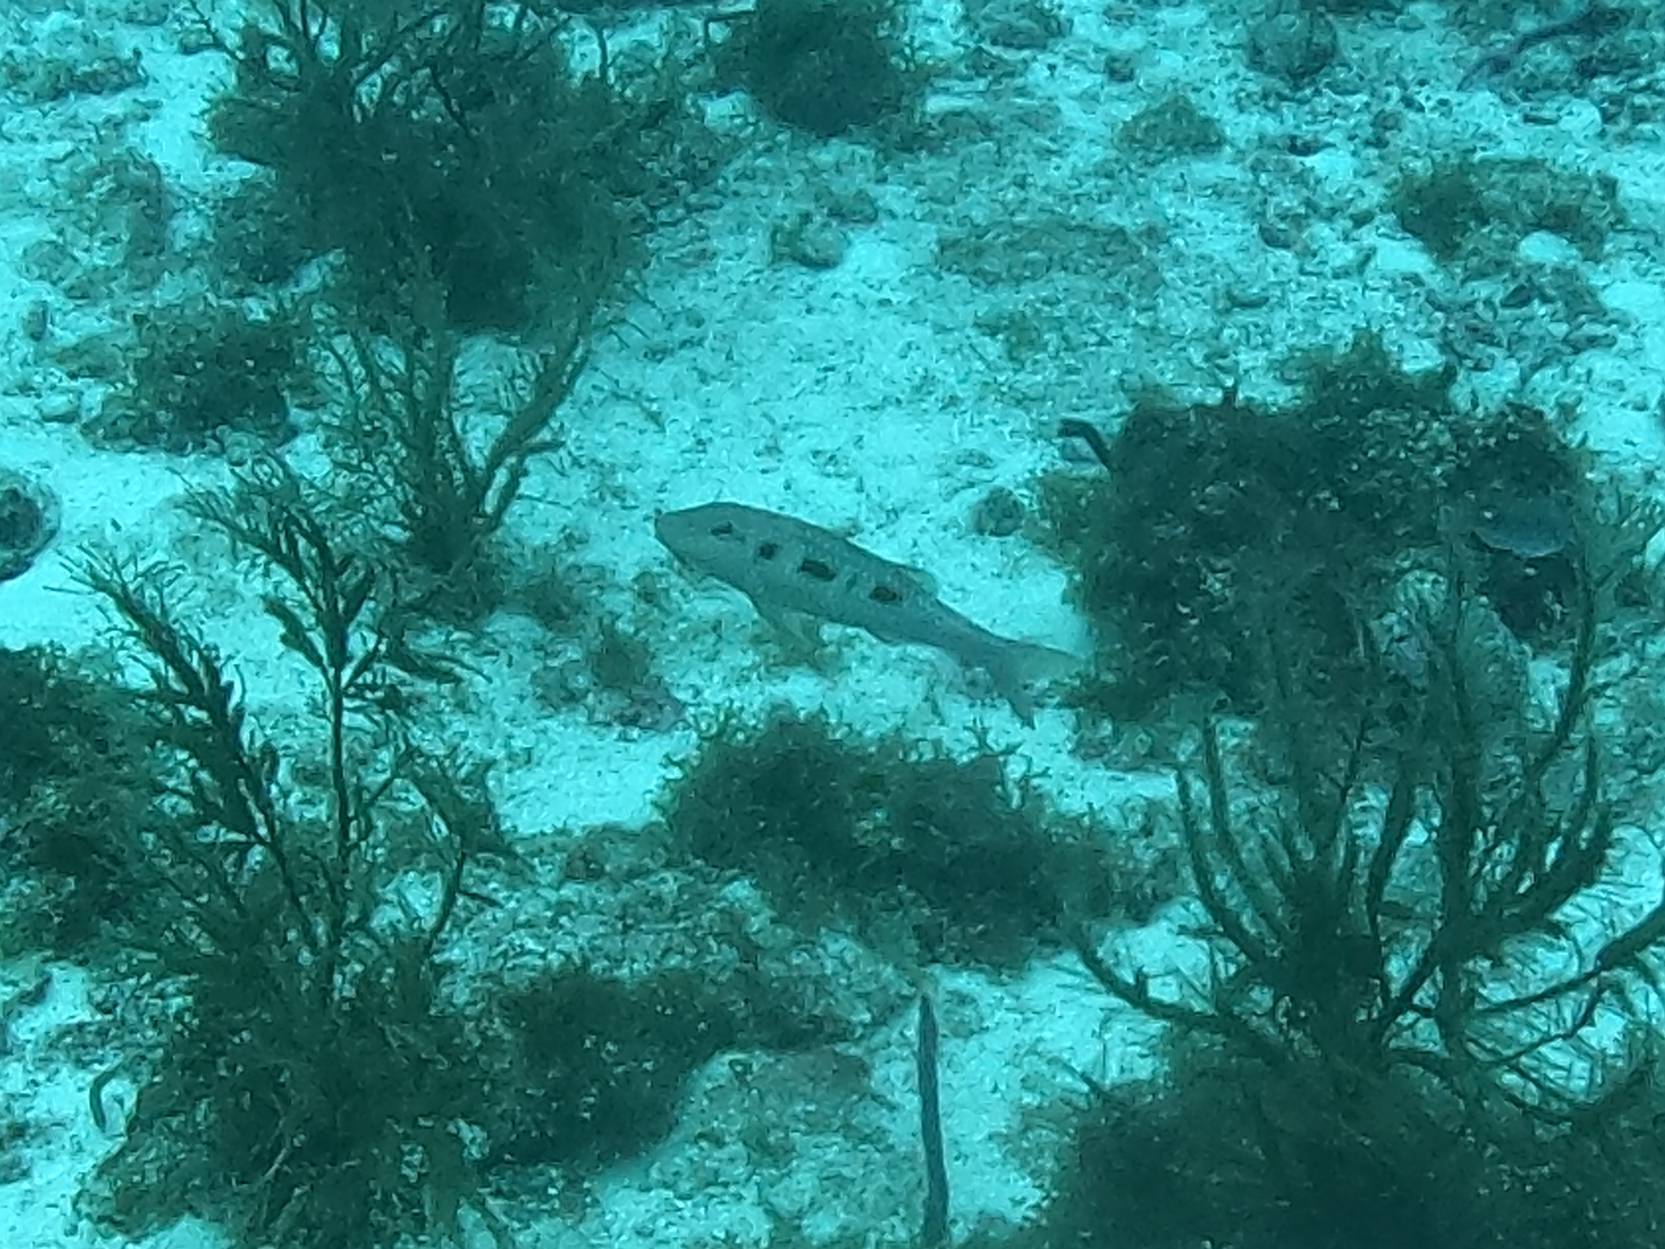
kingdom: Animalia
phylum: Chordata
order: Perciformes
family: Mullidae
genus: Pseudupeneus
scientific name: Pseudupeneus maculatus
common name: Spotted goatfish
